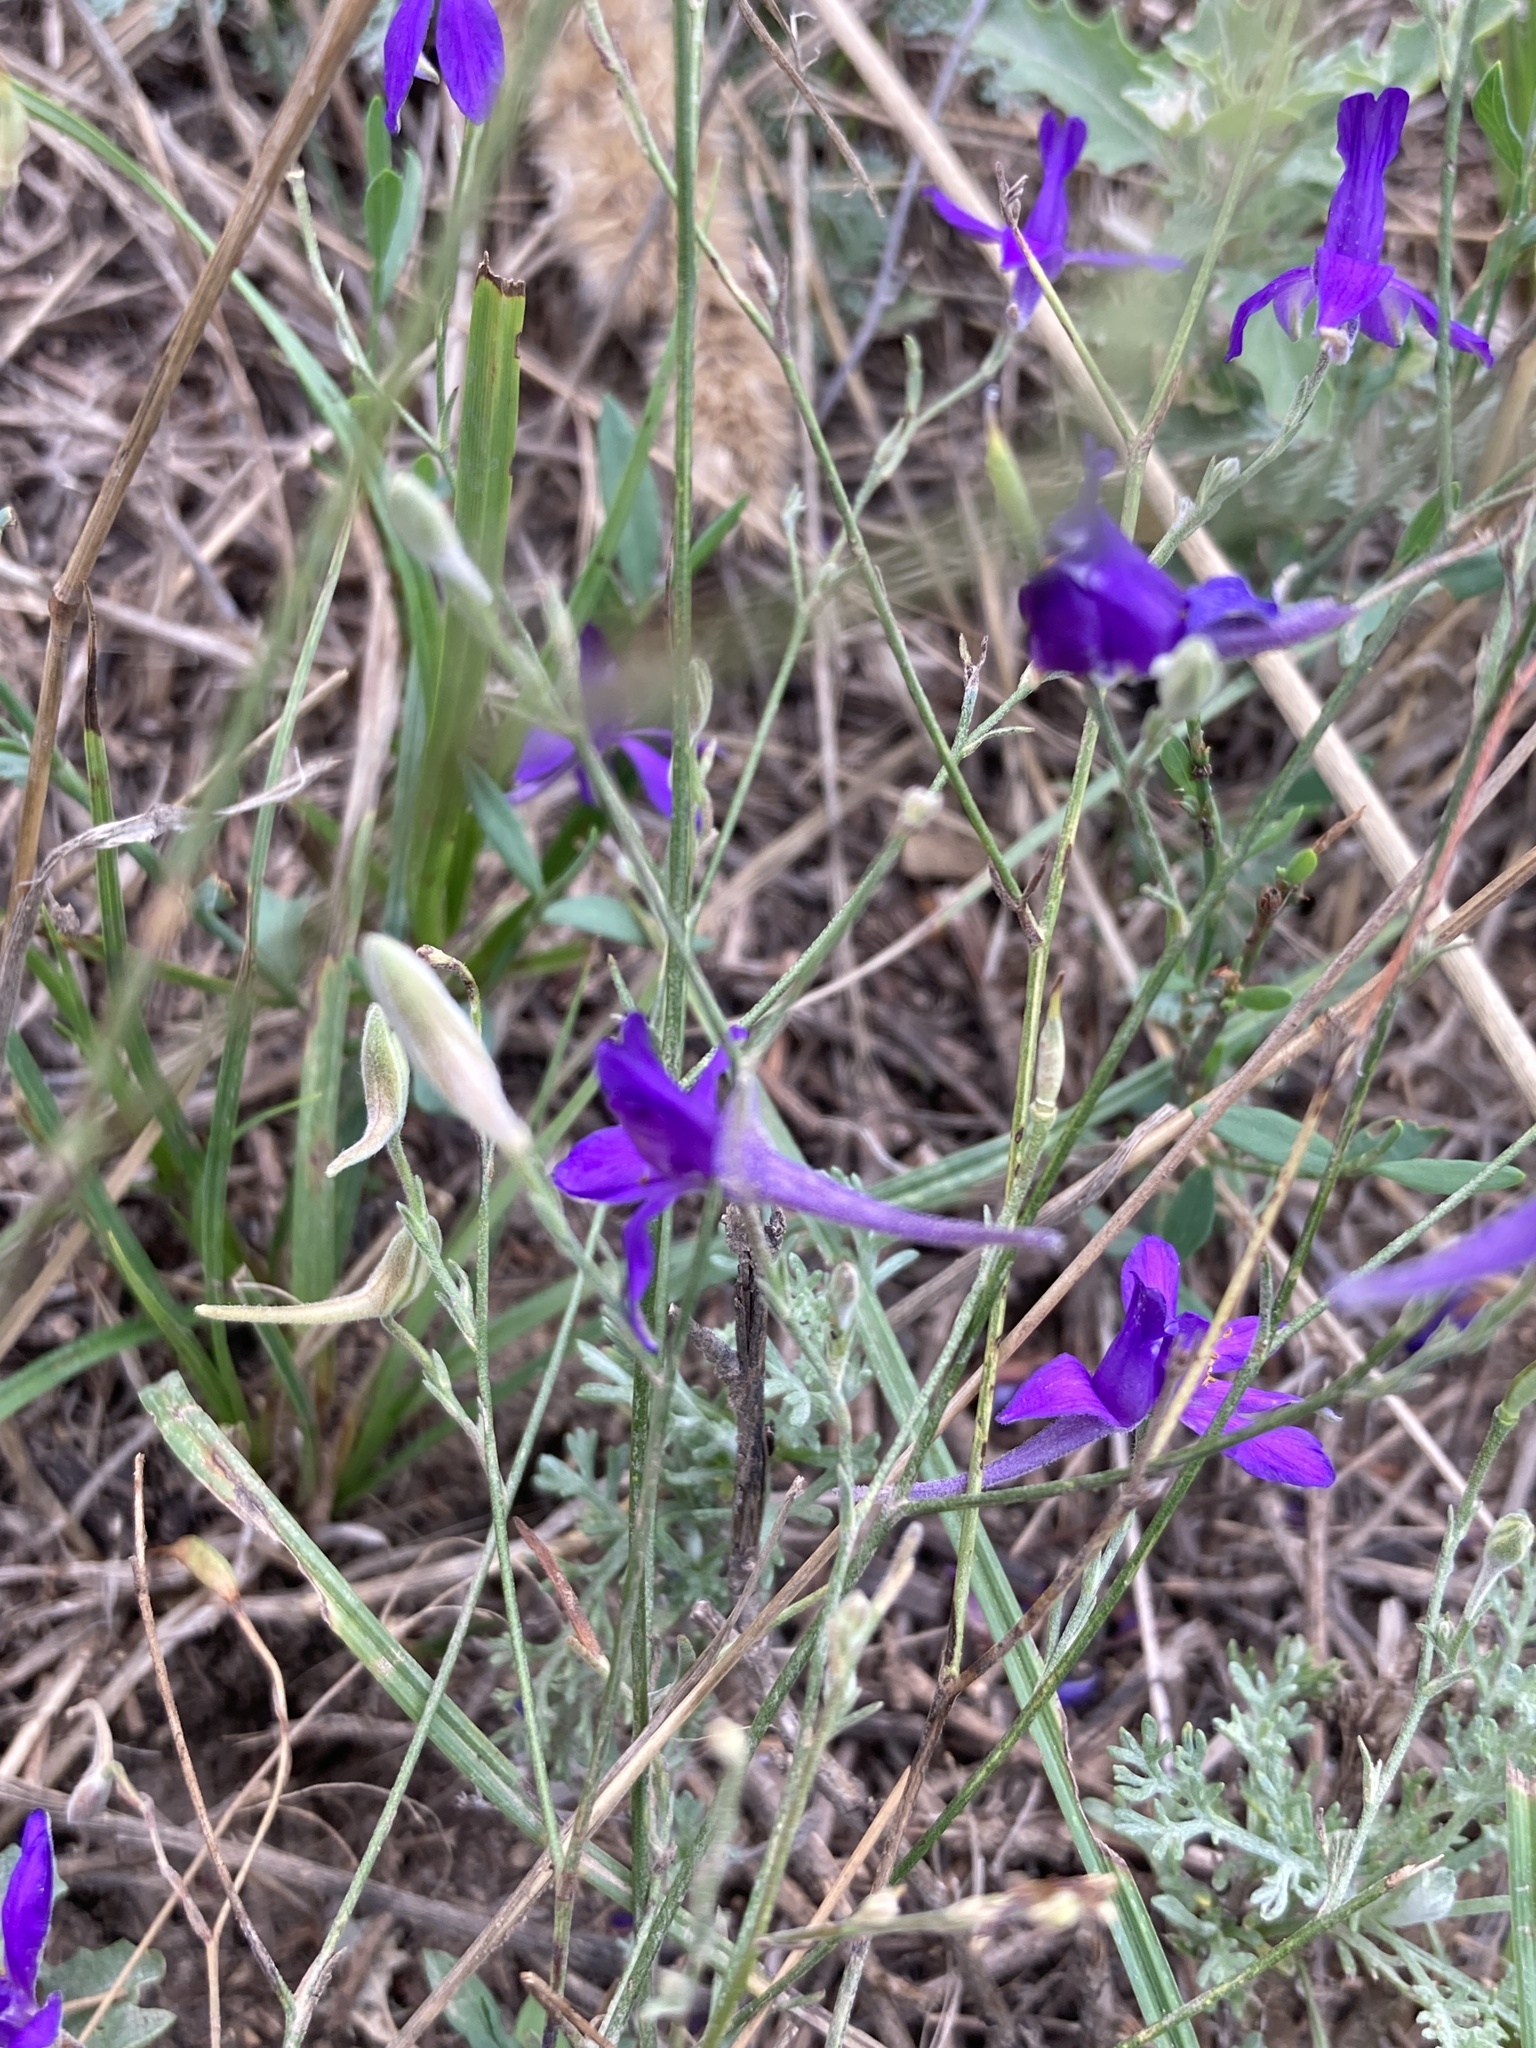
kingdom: Plantae
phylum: Tracheophyta
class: Magnoliopsida
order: Ranunculales
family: Ranunculaceae
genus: Delphinium
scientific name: Delphinium consolida
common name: Branching larkspur
